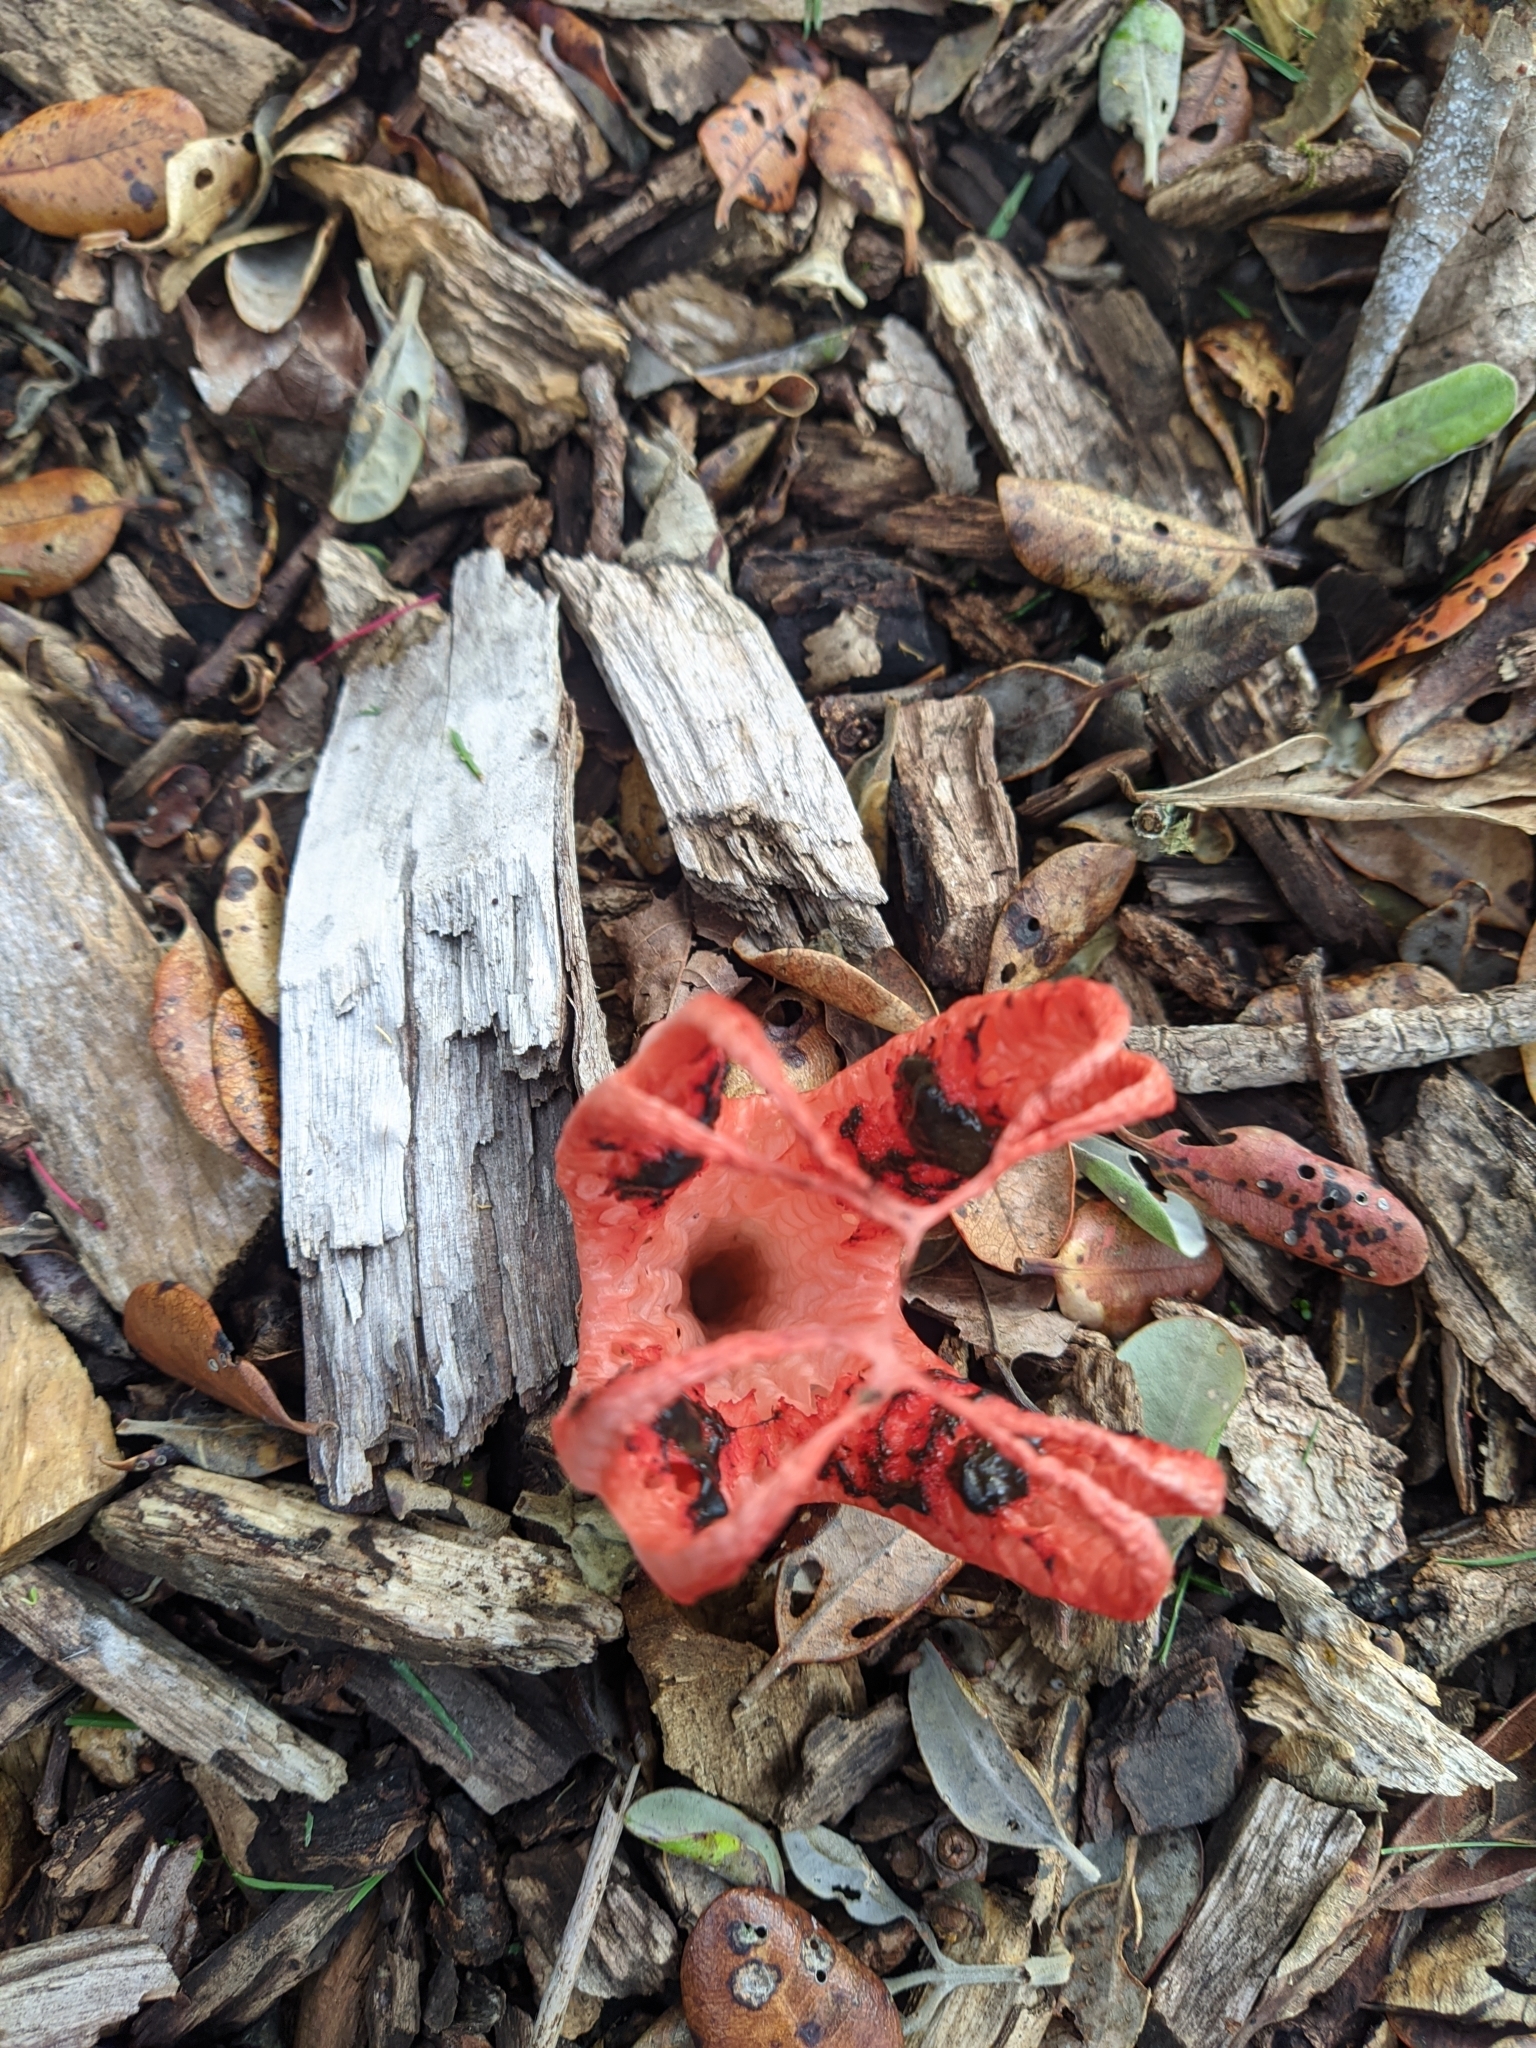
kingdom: Fungi
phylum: Basidiomycota
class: Agaricomycetes
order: Phallales
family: Phallaceae
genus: Clathrus
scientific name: Clathrus archeri
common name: Devil's fingers
